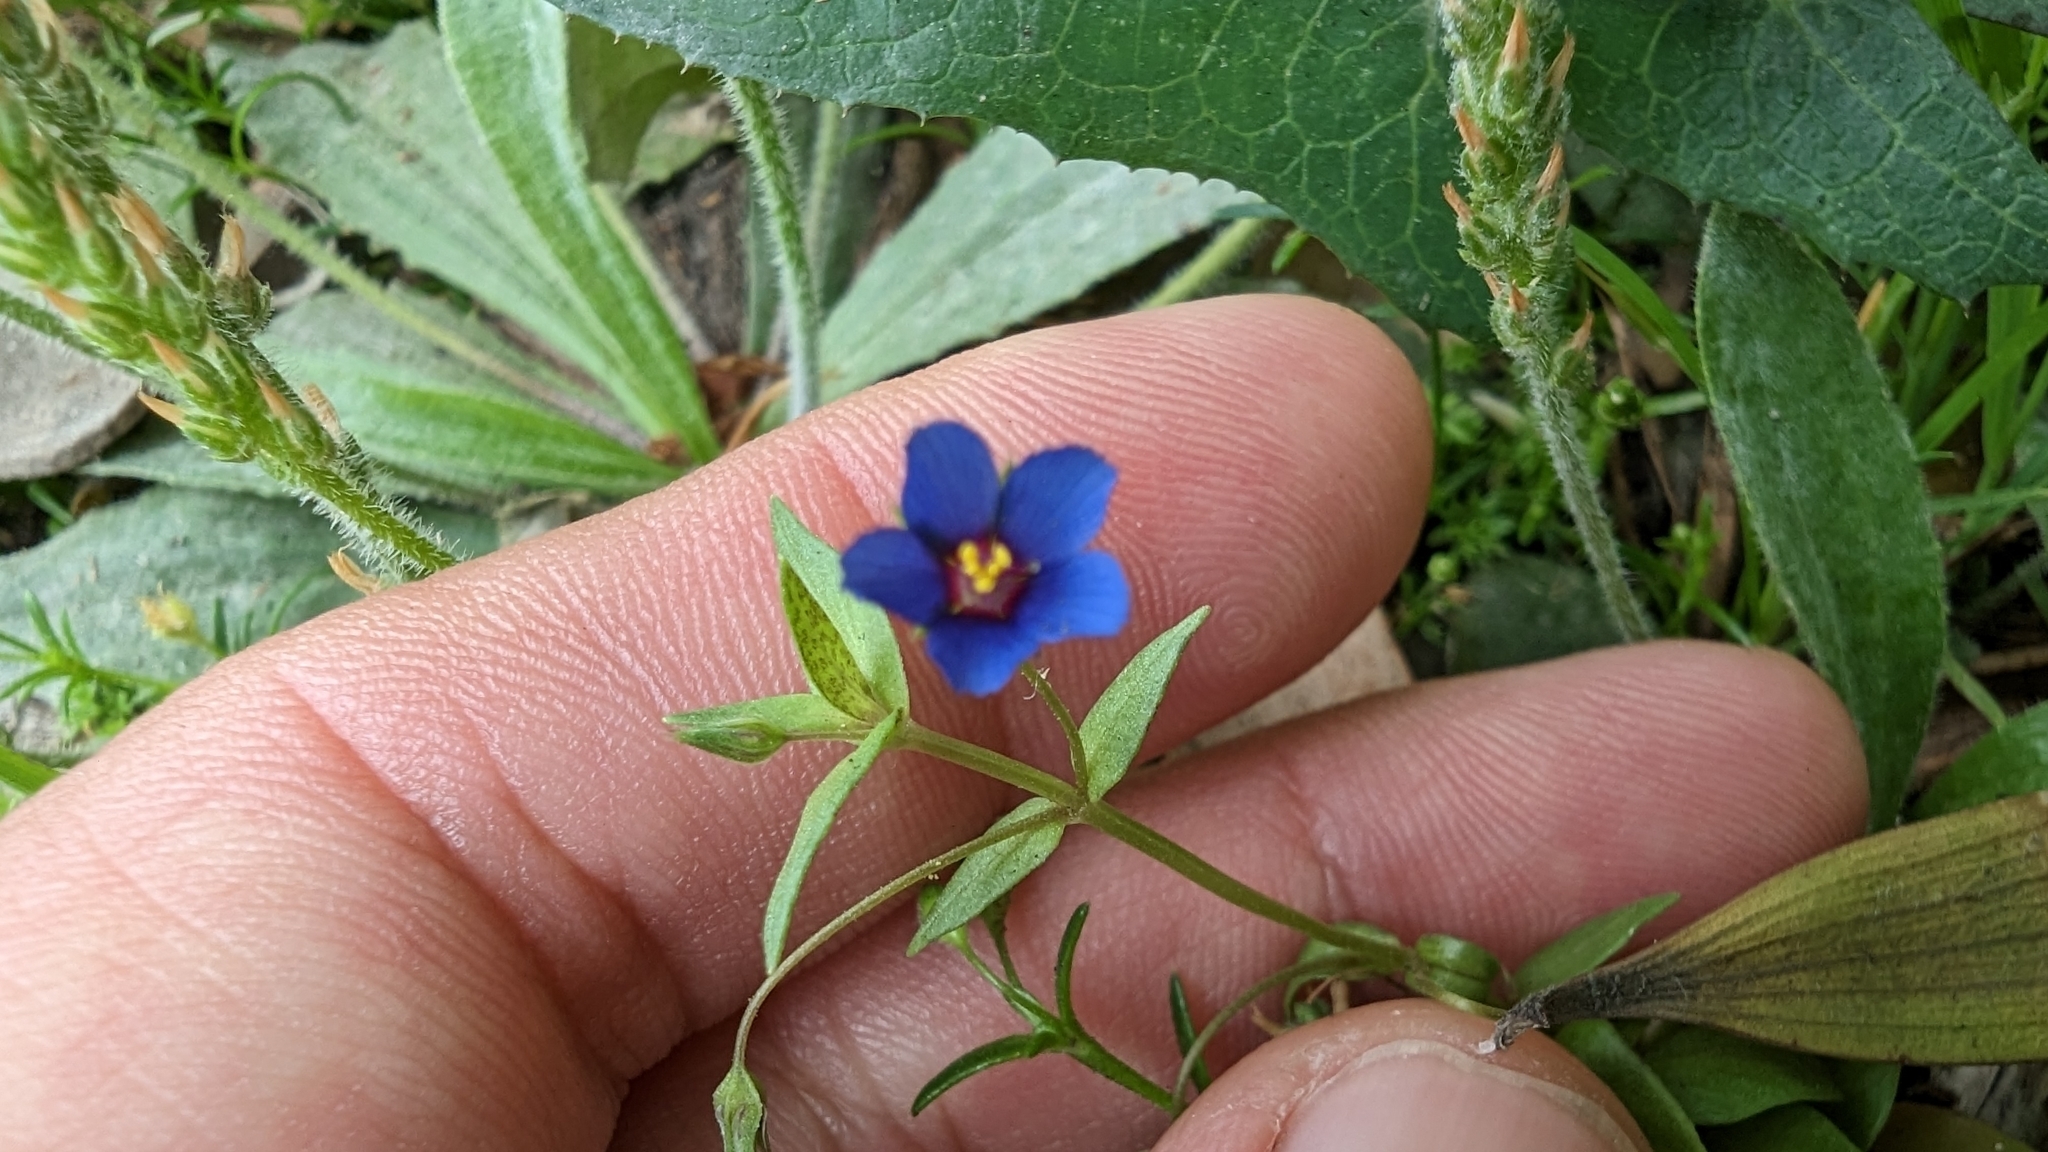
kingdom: Plantae
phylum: Tracheophyta
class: Magnoliopsida
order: Ericales
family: Primulaceae
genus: Lysimachia
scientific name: Lysimachia loeflingii
